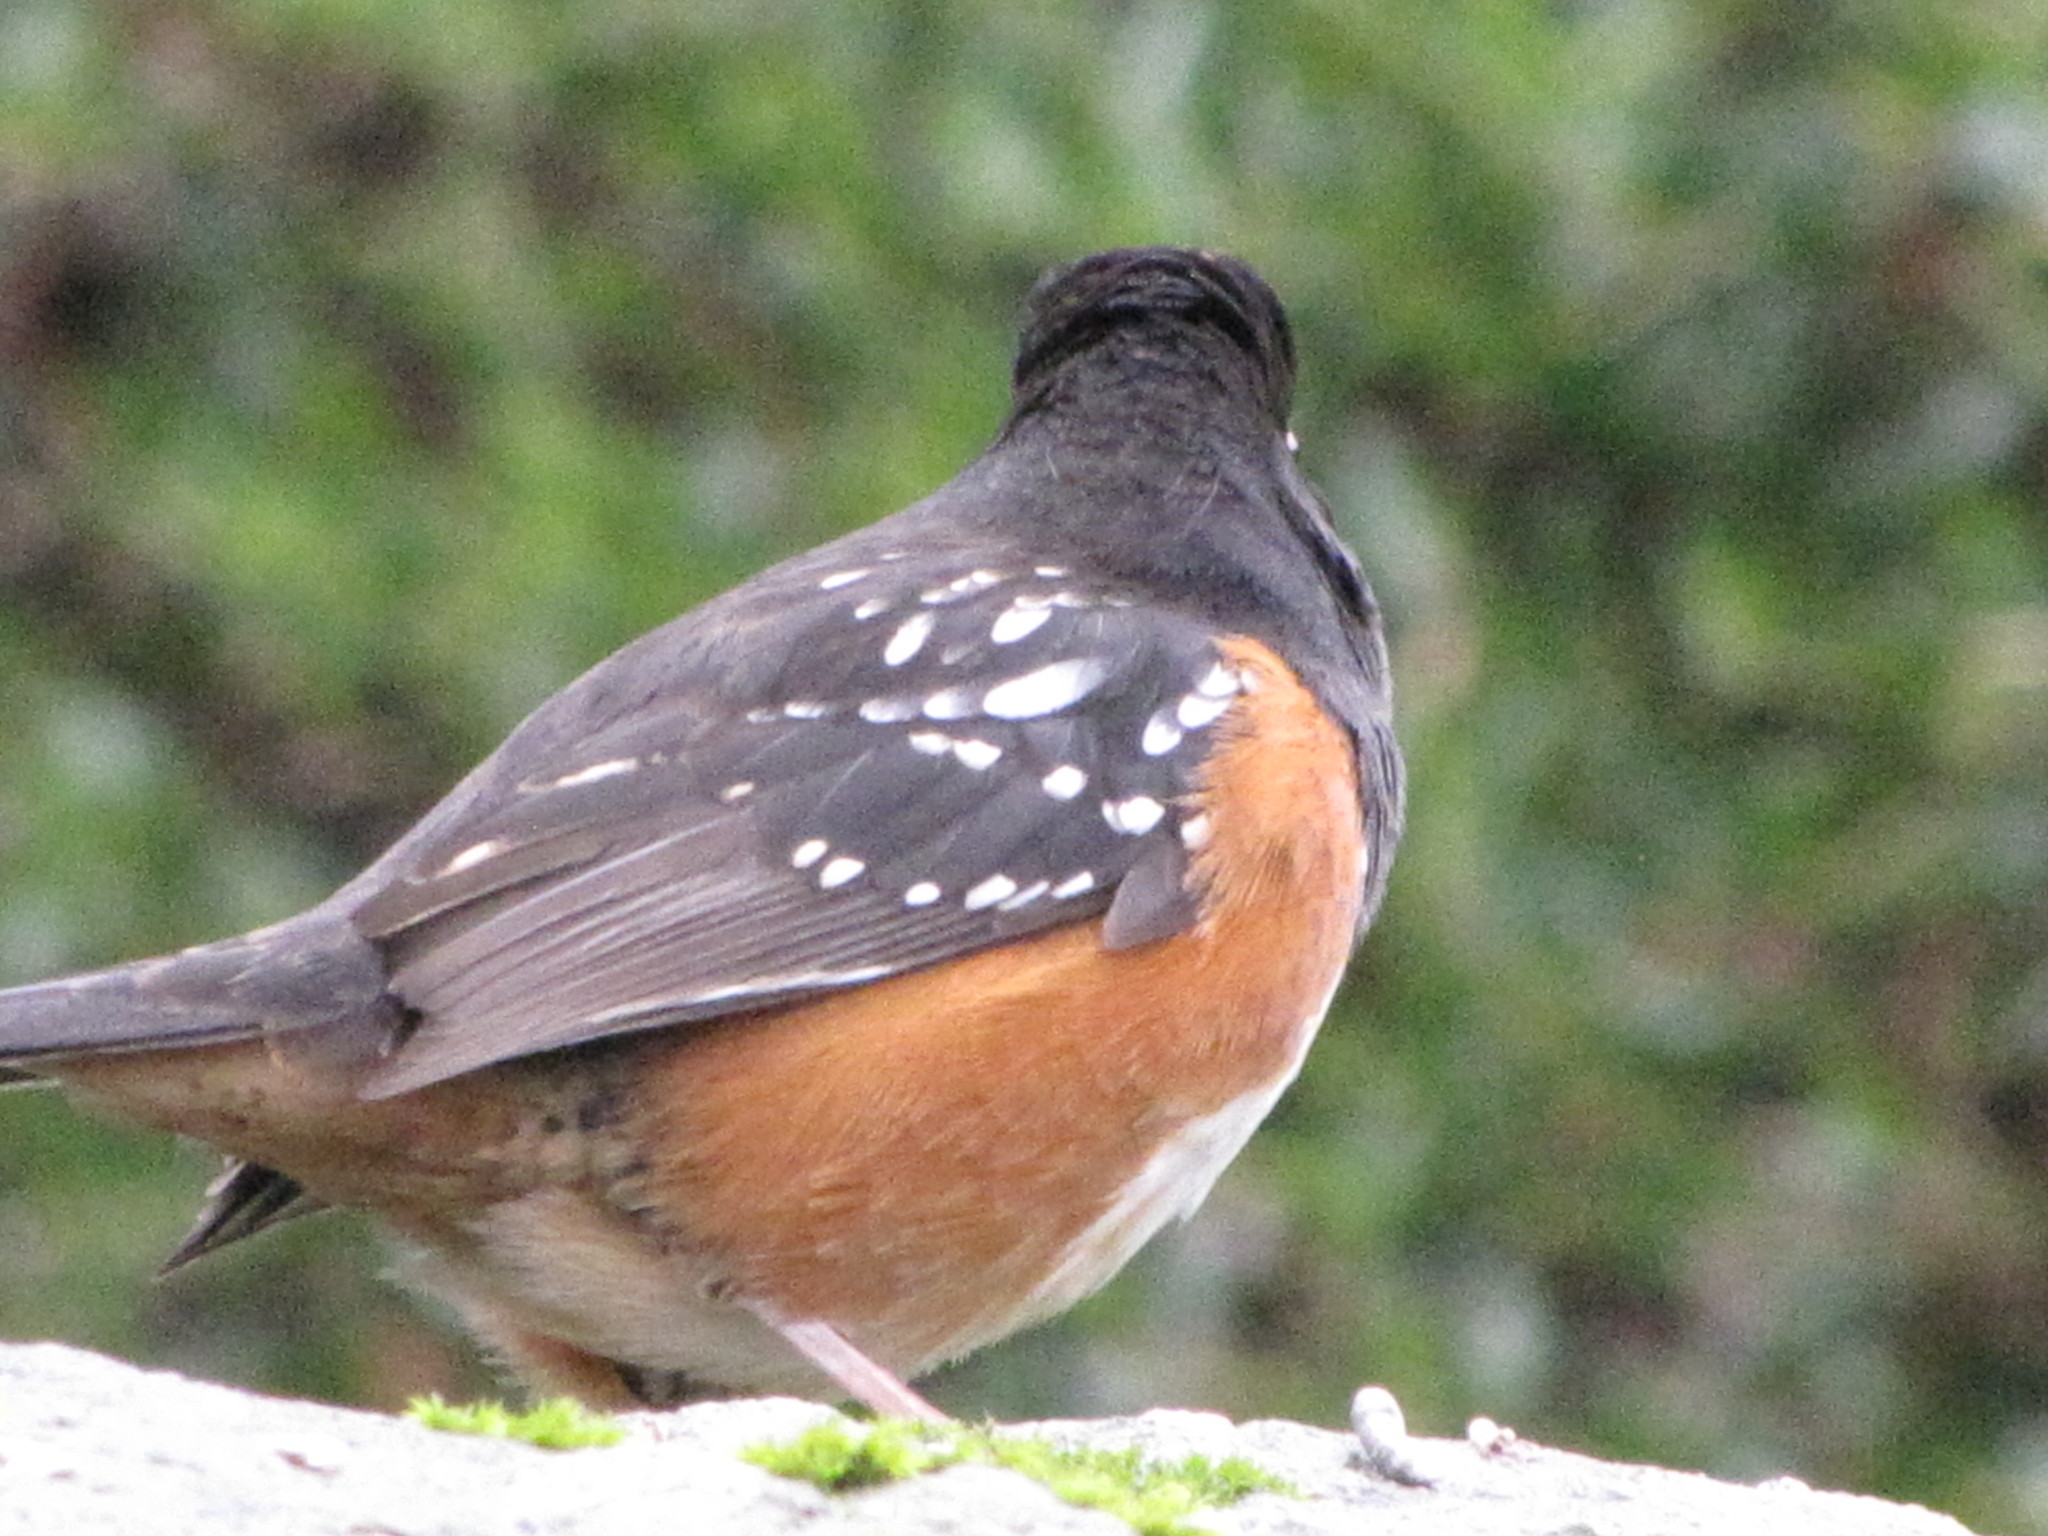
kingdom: Animalia
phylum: Chordata
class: Aves
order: Passeriformes
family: Passerellidae
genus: Pipilo
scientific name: Pipilo maculatus
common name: Spotted towhee
